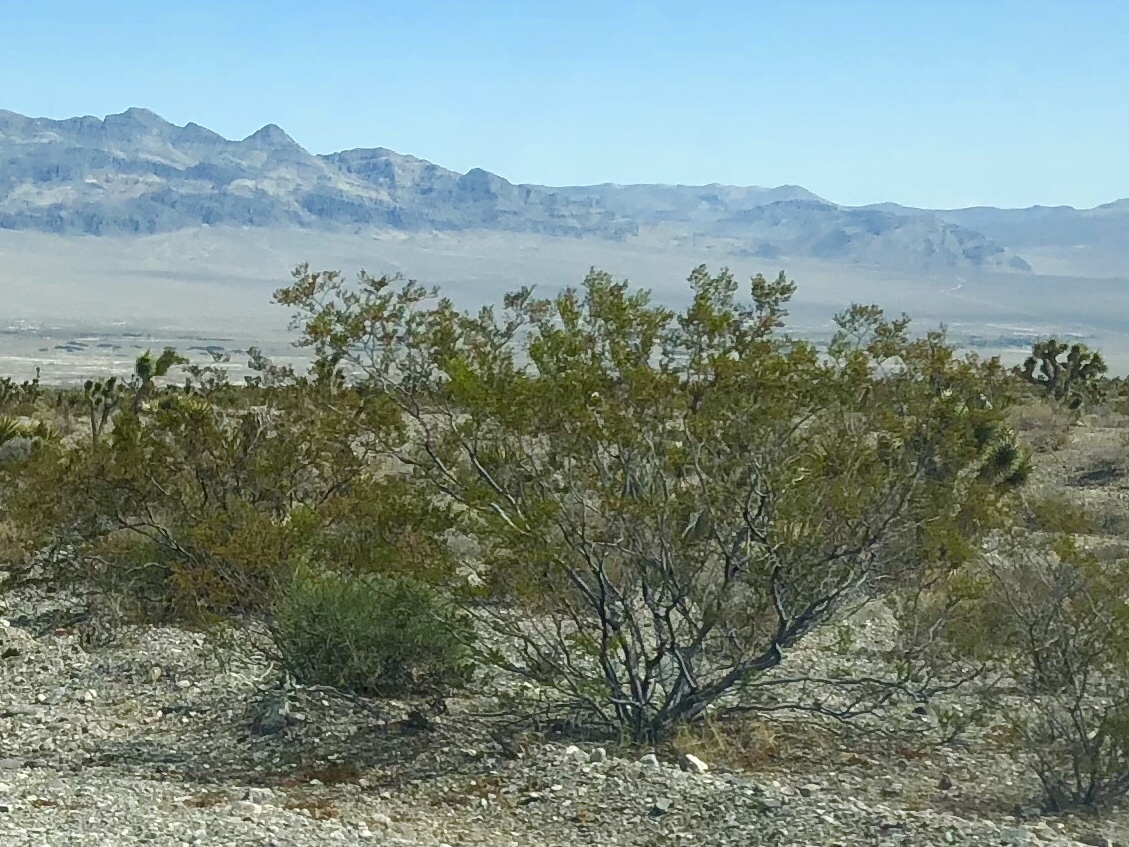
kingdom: Plantae
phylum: Tracheophyta
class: Magnoliopsida
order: Zygophyllales
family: Zygophyllaceae
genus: Larrea
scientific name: Larrea tridentata
